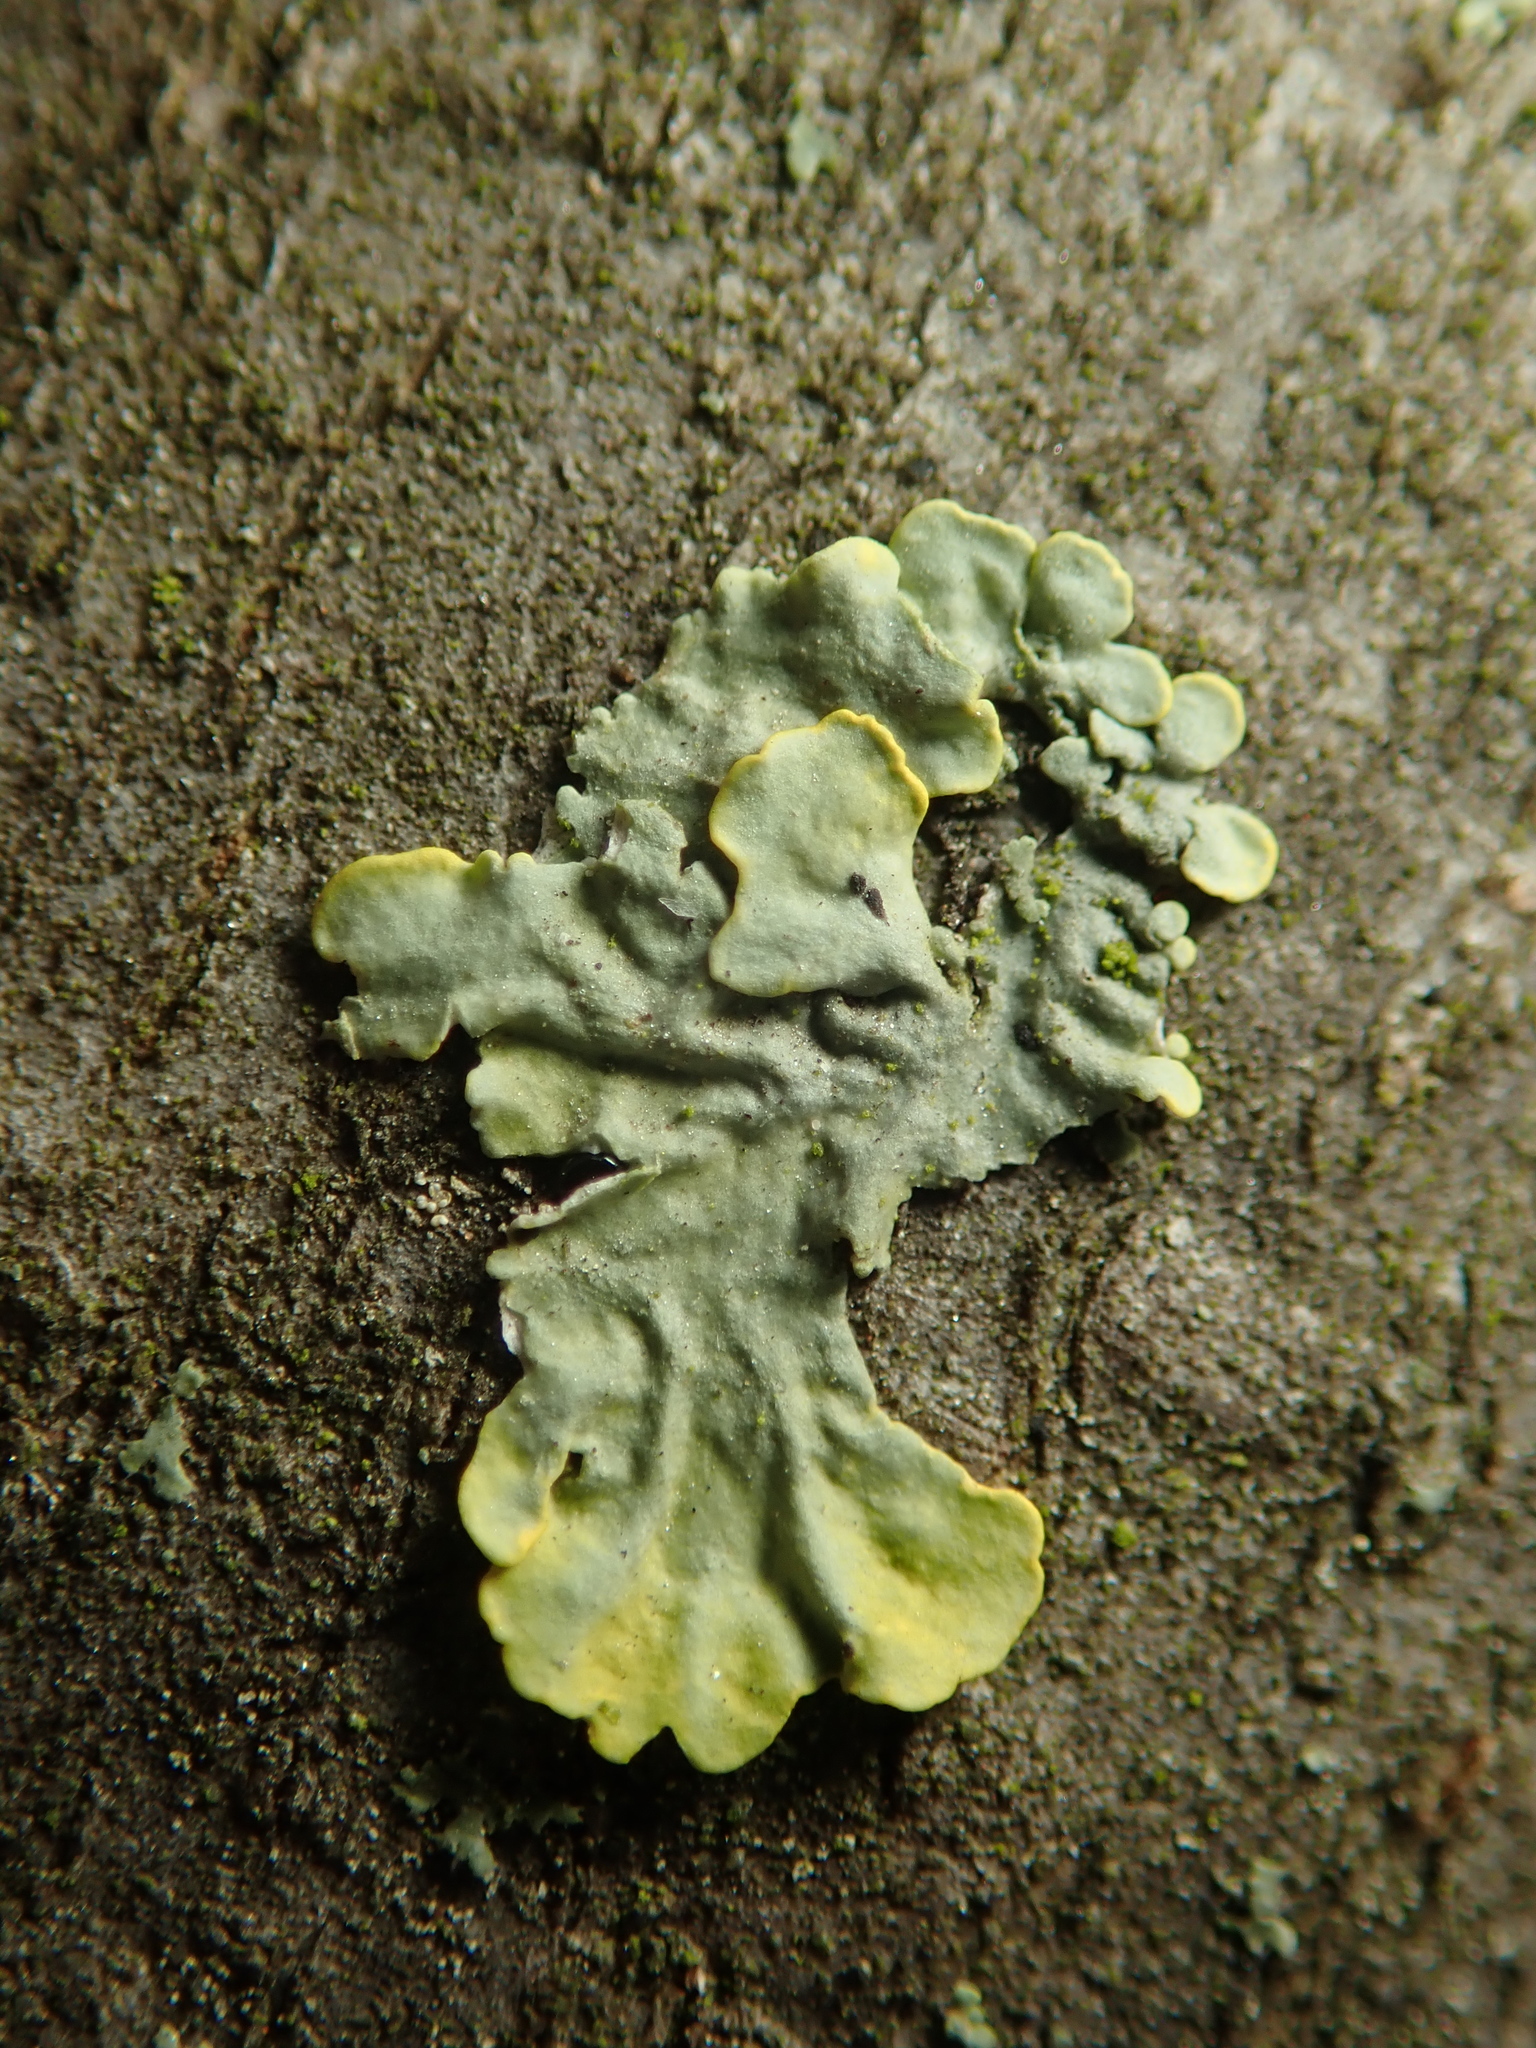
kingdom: Fungi
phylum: Ascomycota
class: Lecanoromycetes
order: Teloschistales
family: Teloschistaceae
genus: Xanthoria
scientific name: Xanthoria parietina
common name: Common orange lichen
